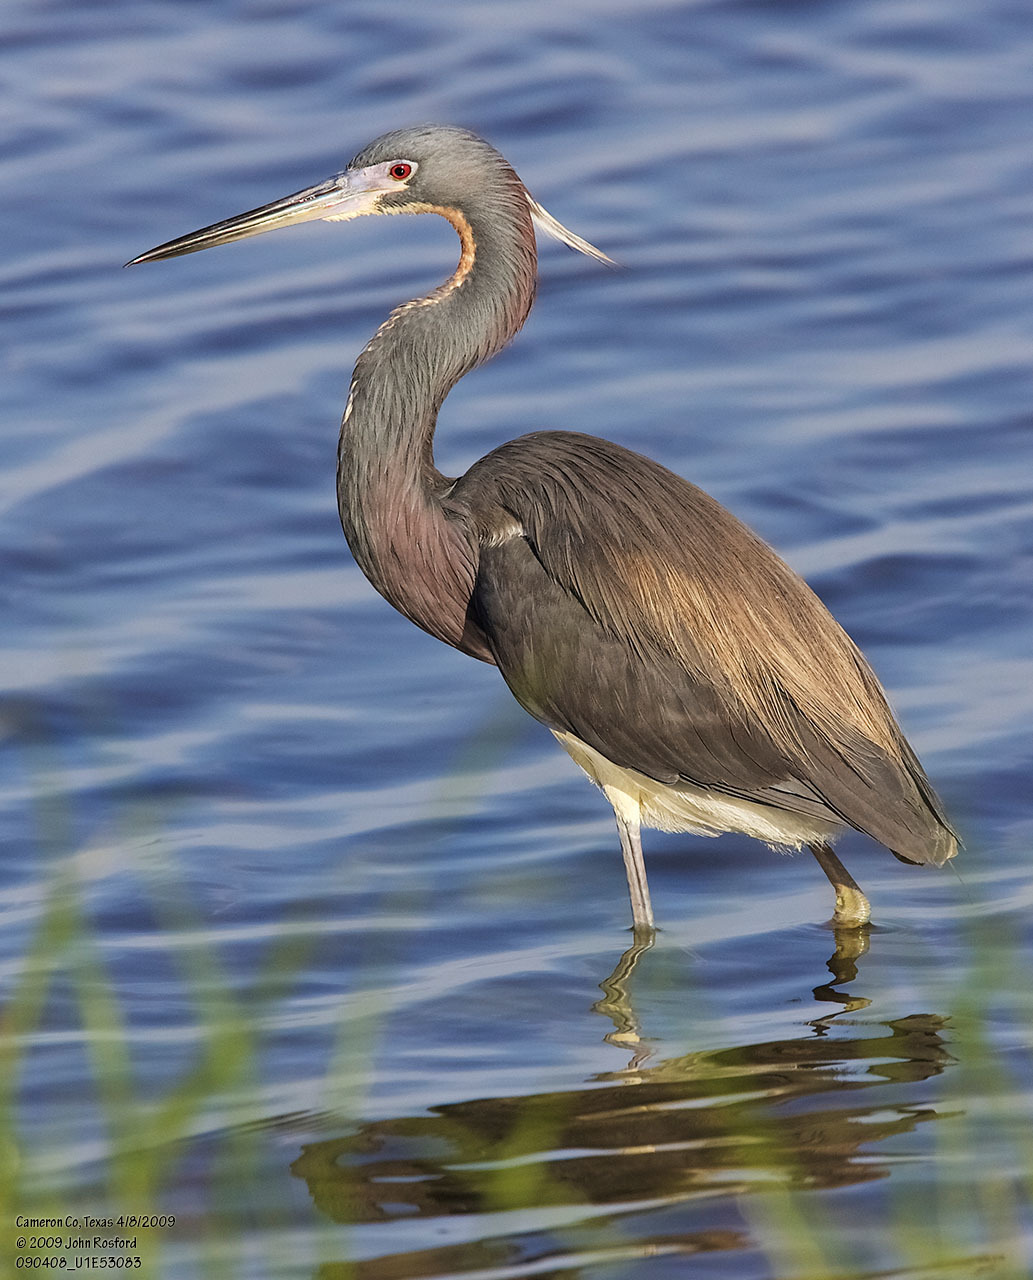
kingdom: Animalia
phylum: Chordata
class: Aves
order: Pelecaniformes
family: Ardeidae
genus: Egretta
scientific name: Egretta tricolor
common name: Tricolored heron
